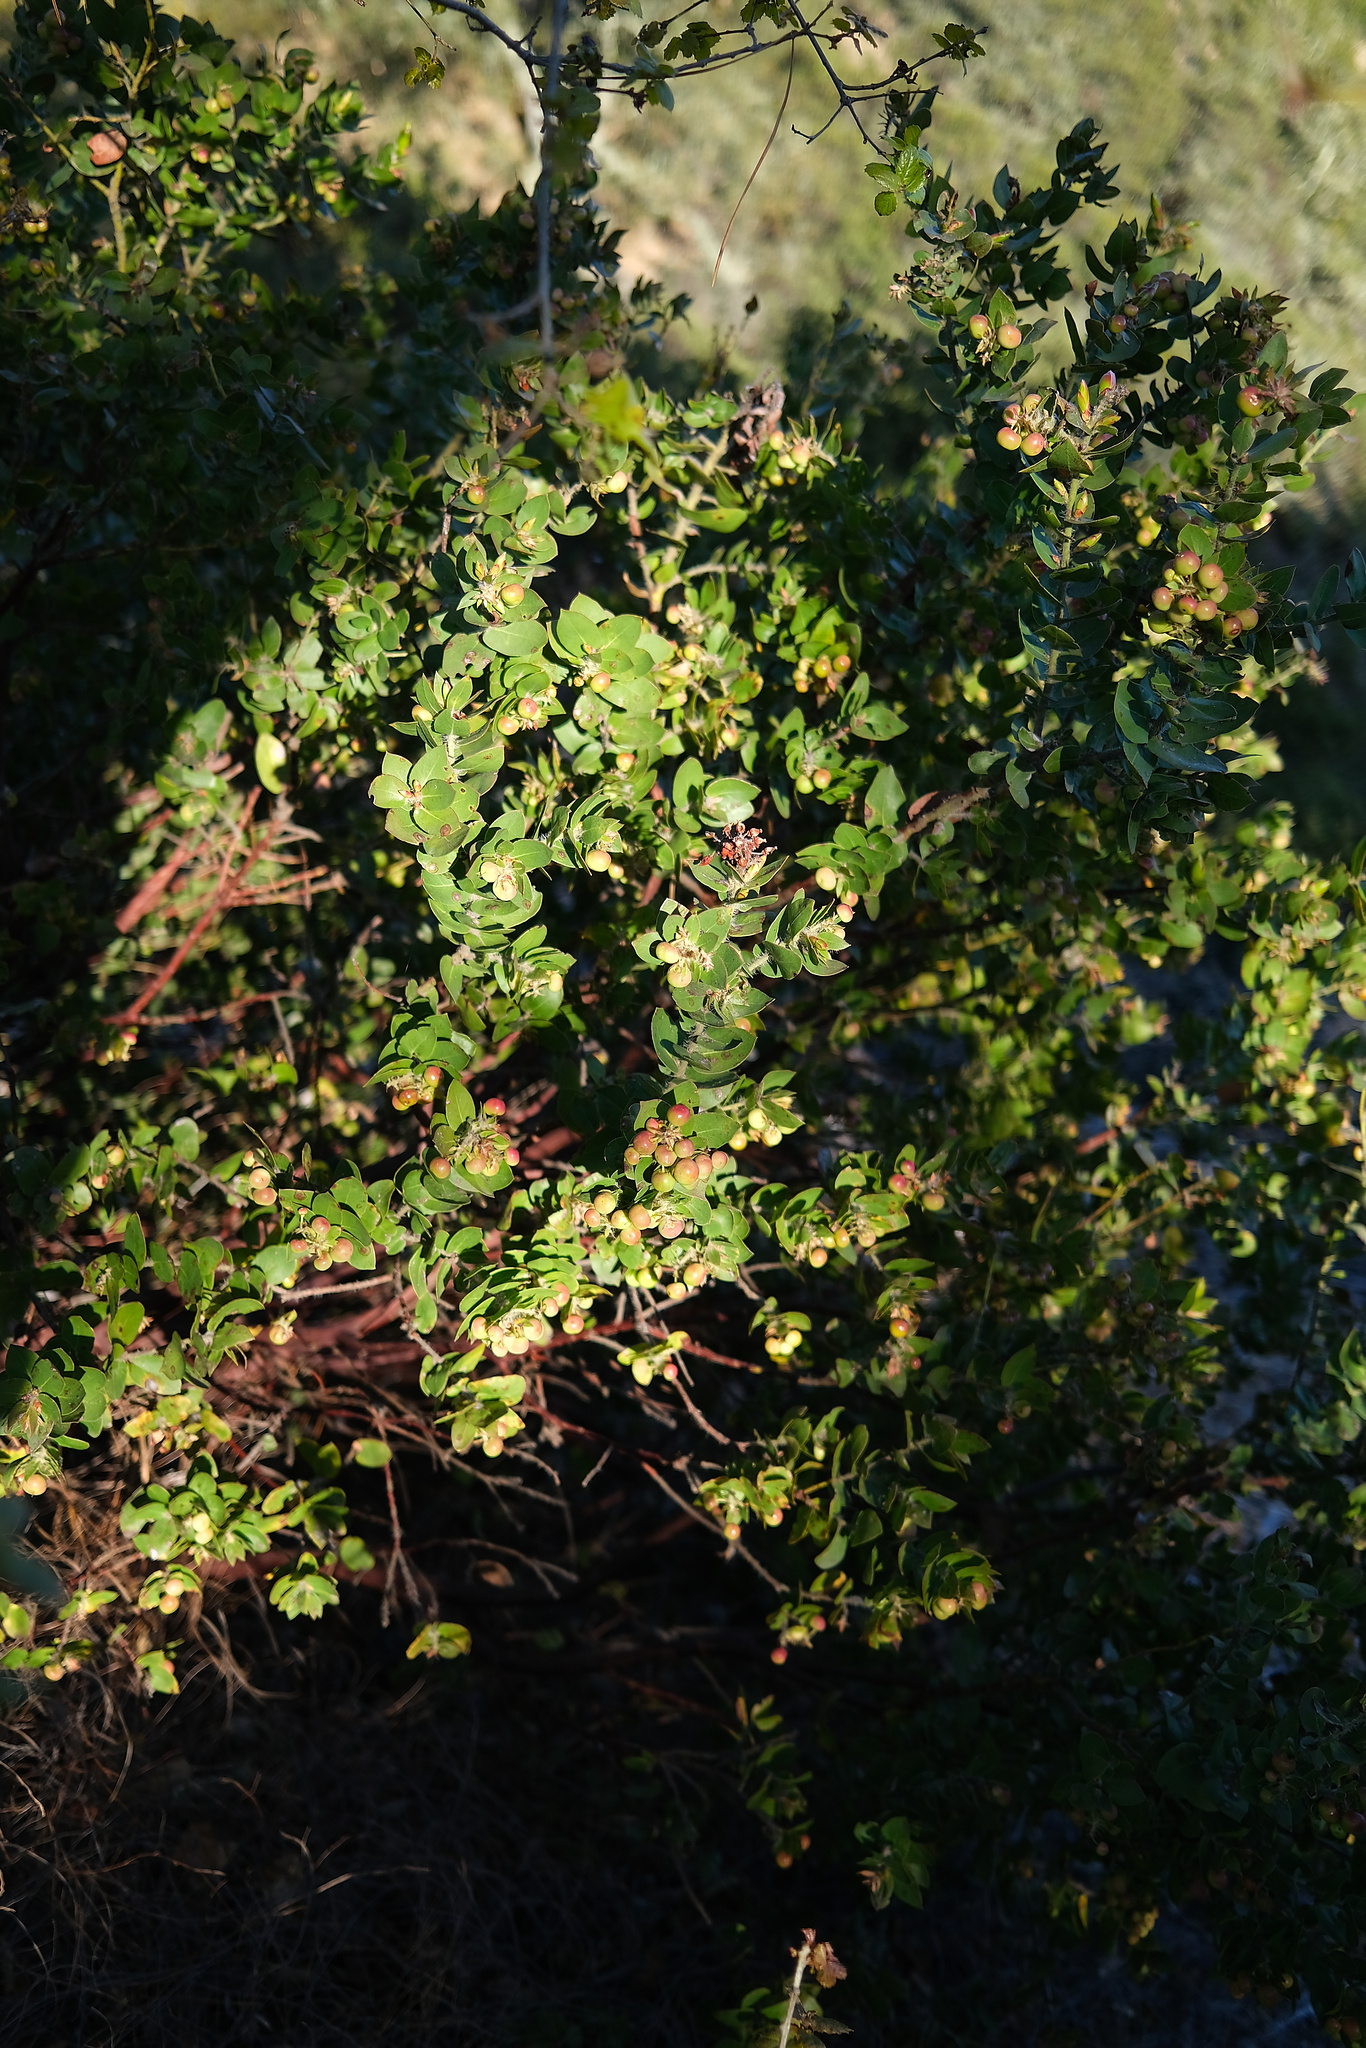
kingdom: Plantae
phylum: Tracheophyta
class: Magnoliopsida
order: Ericales
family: Ericaceae
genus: Arctostaphylos
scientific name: Arctostaphylos pechoensis
